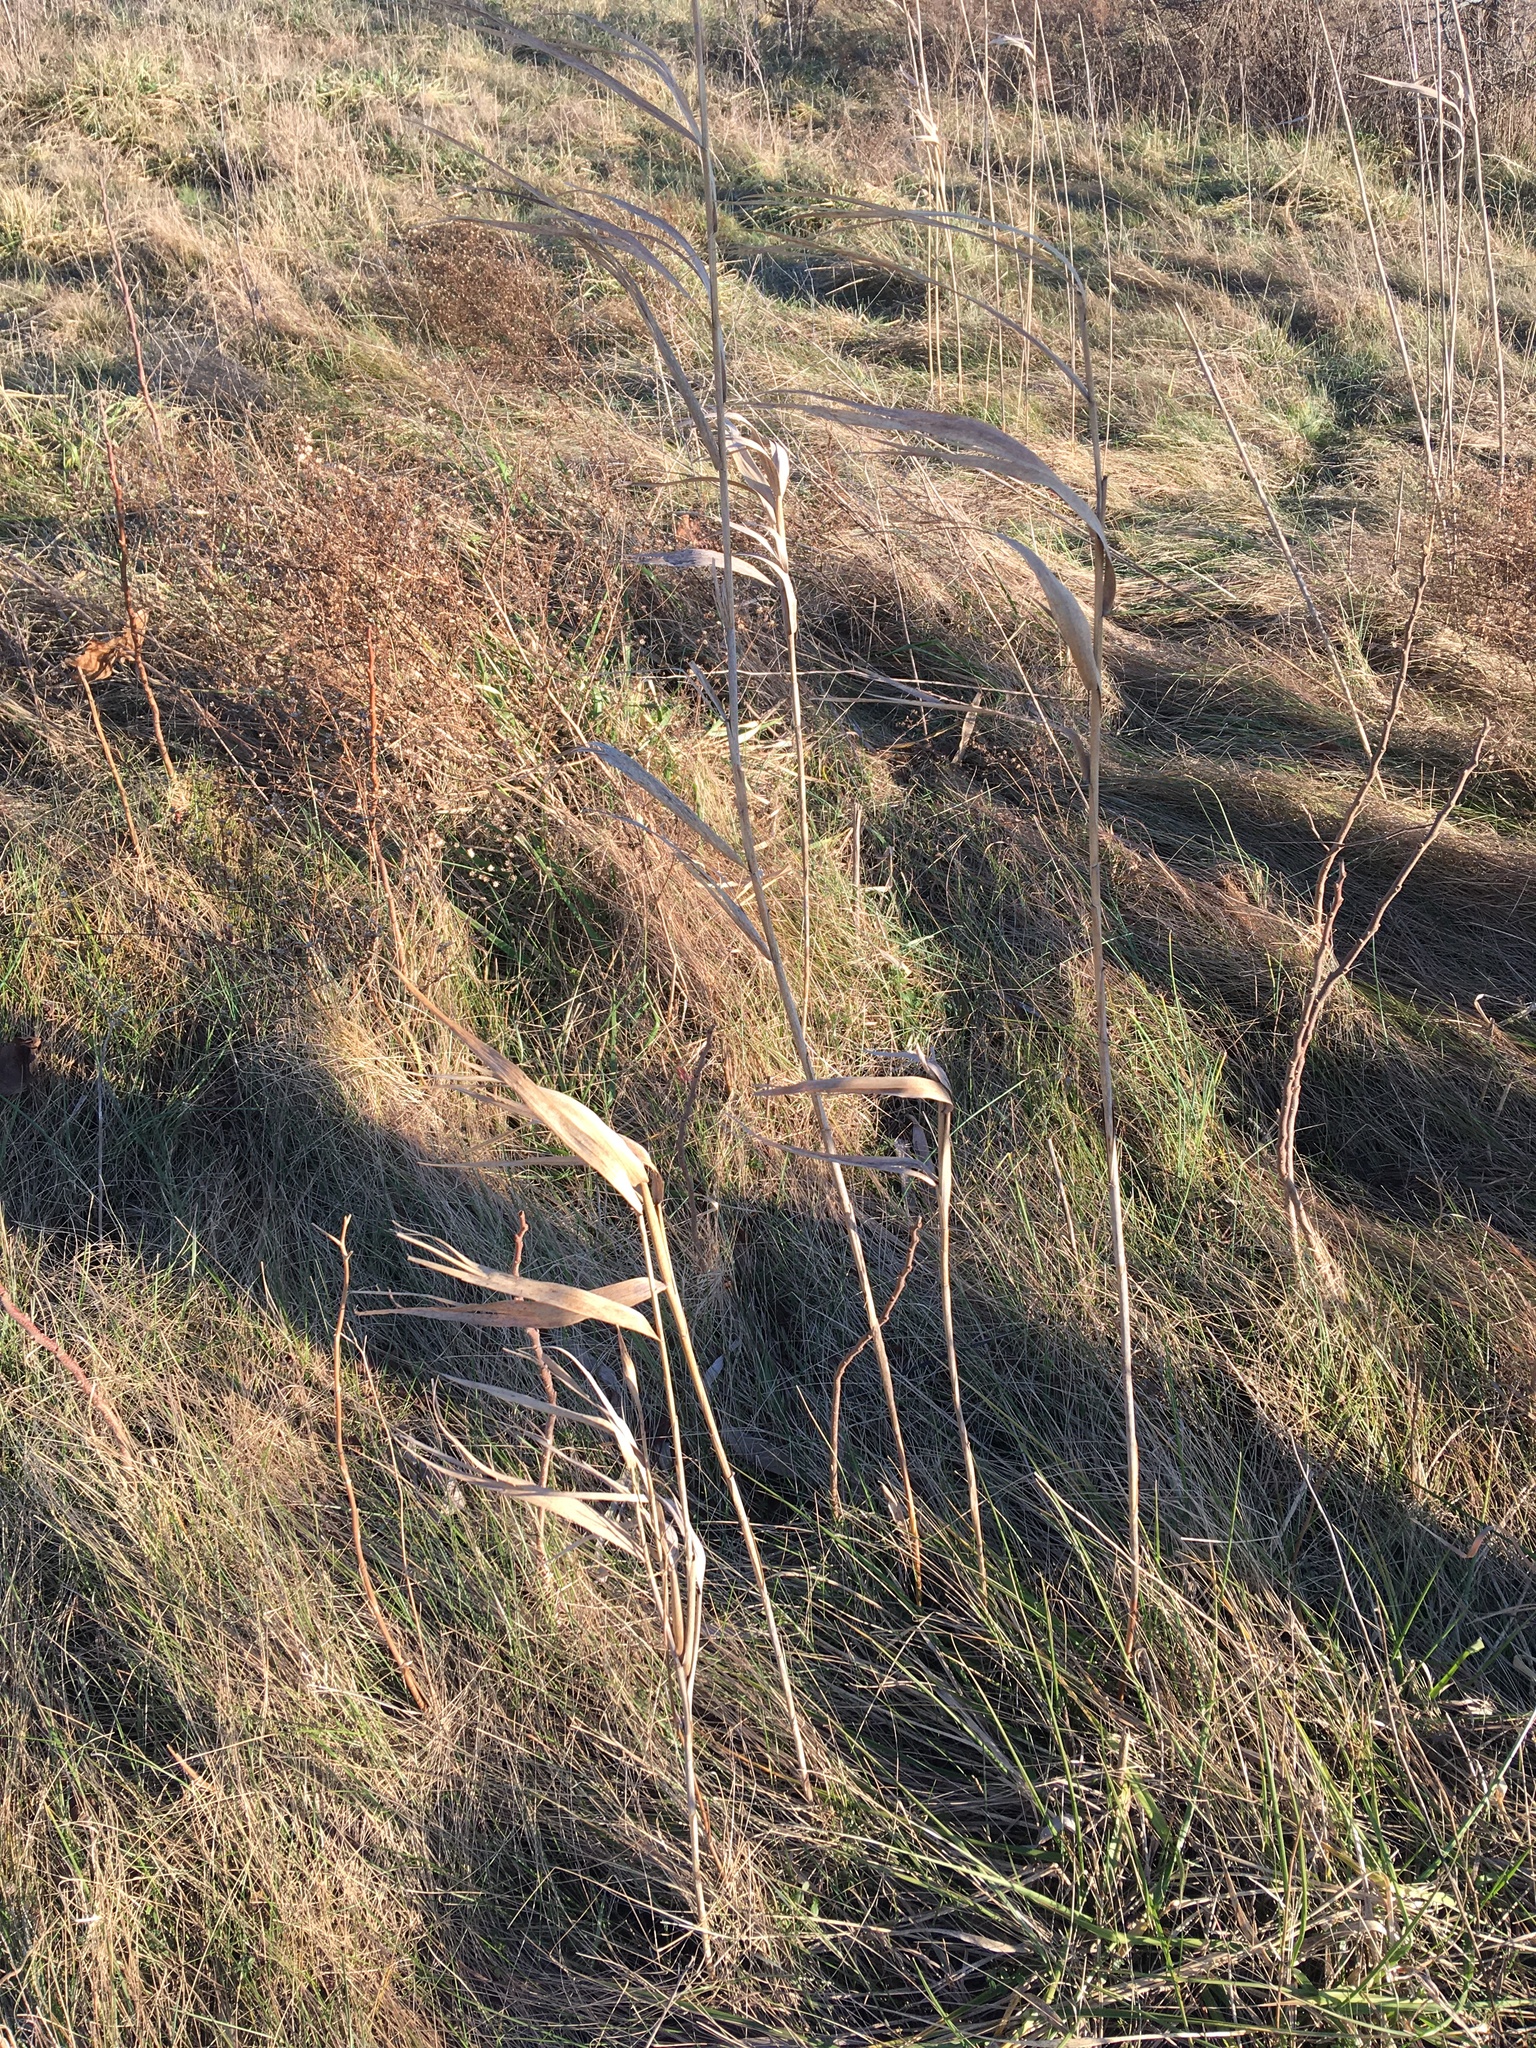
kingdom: Plantae
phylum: Tracheophyta
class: Liliopsida
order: Poales
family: Poaceae
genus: Phragmites
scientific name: Phragmites australis
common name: Common reed
